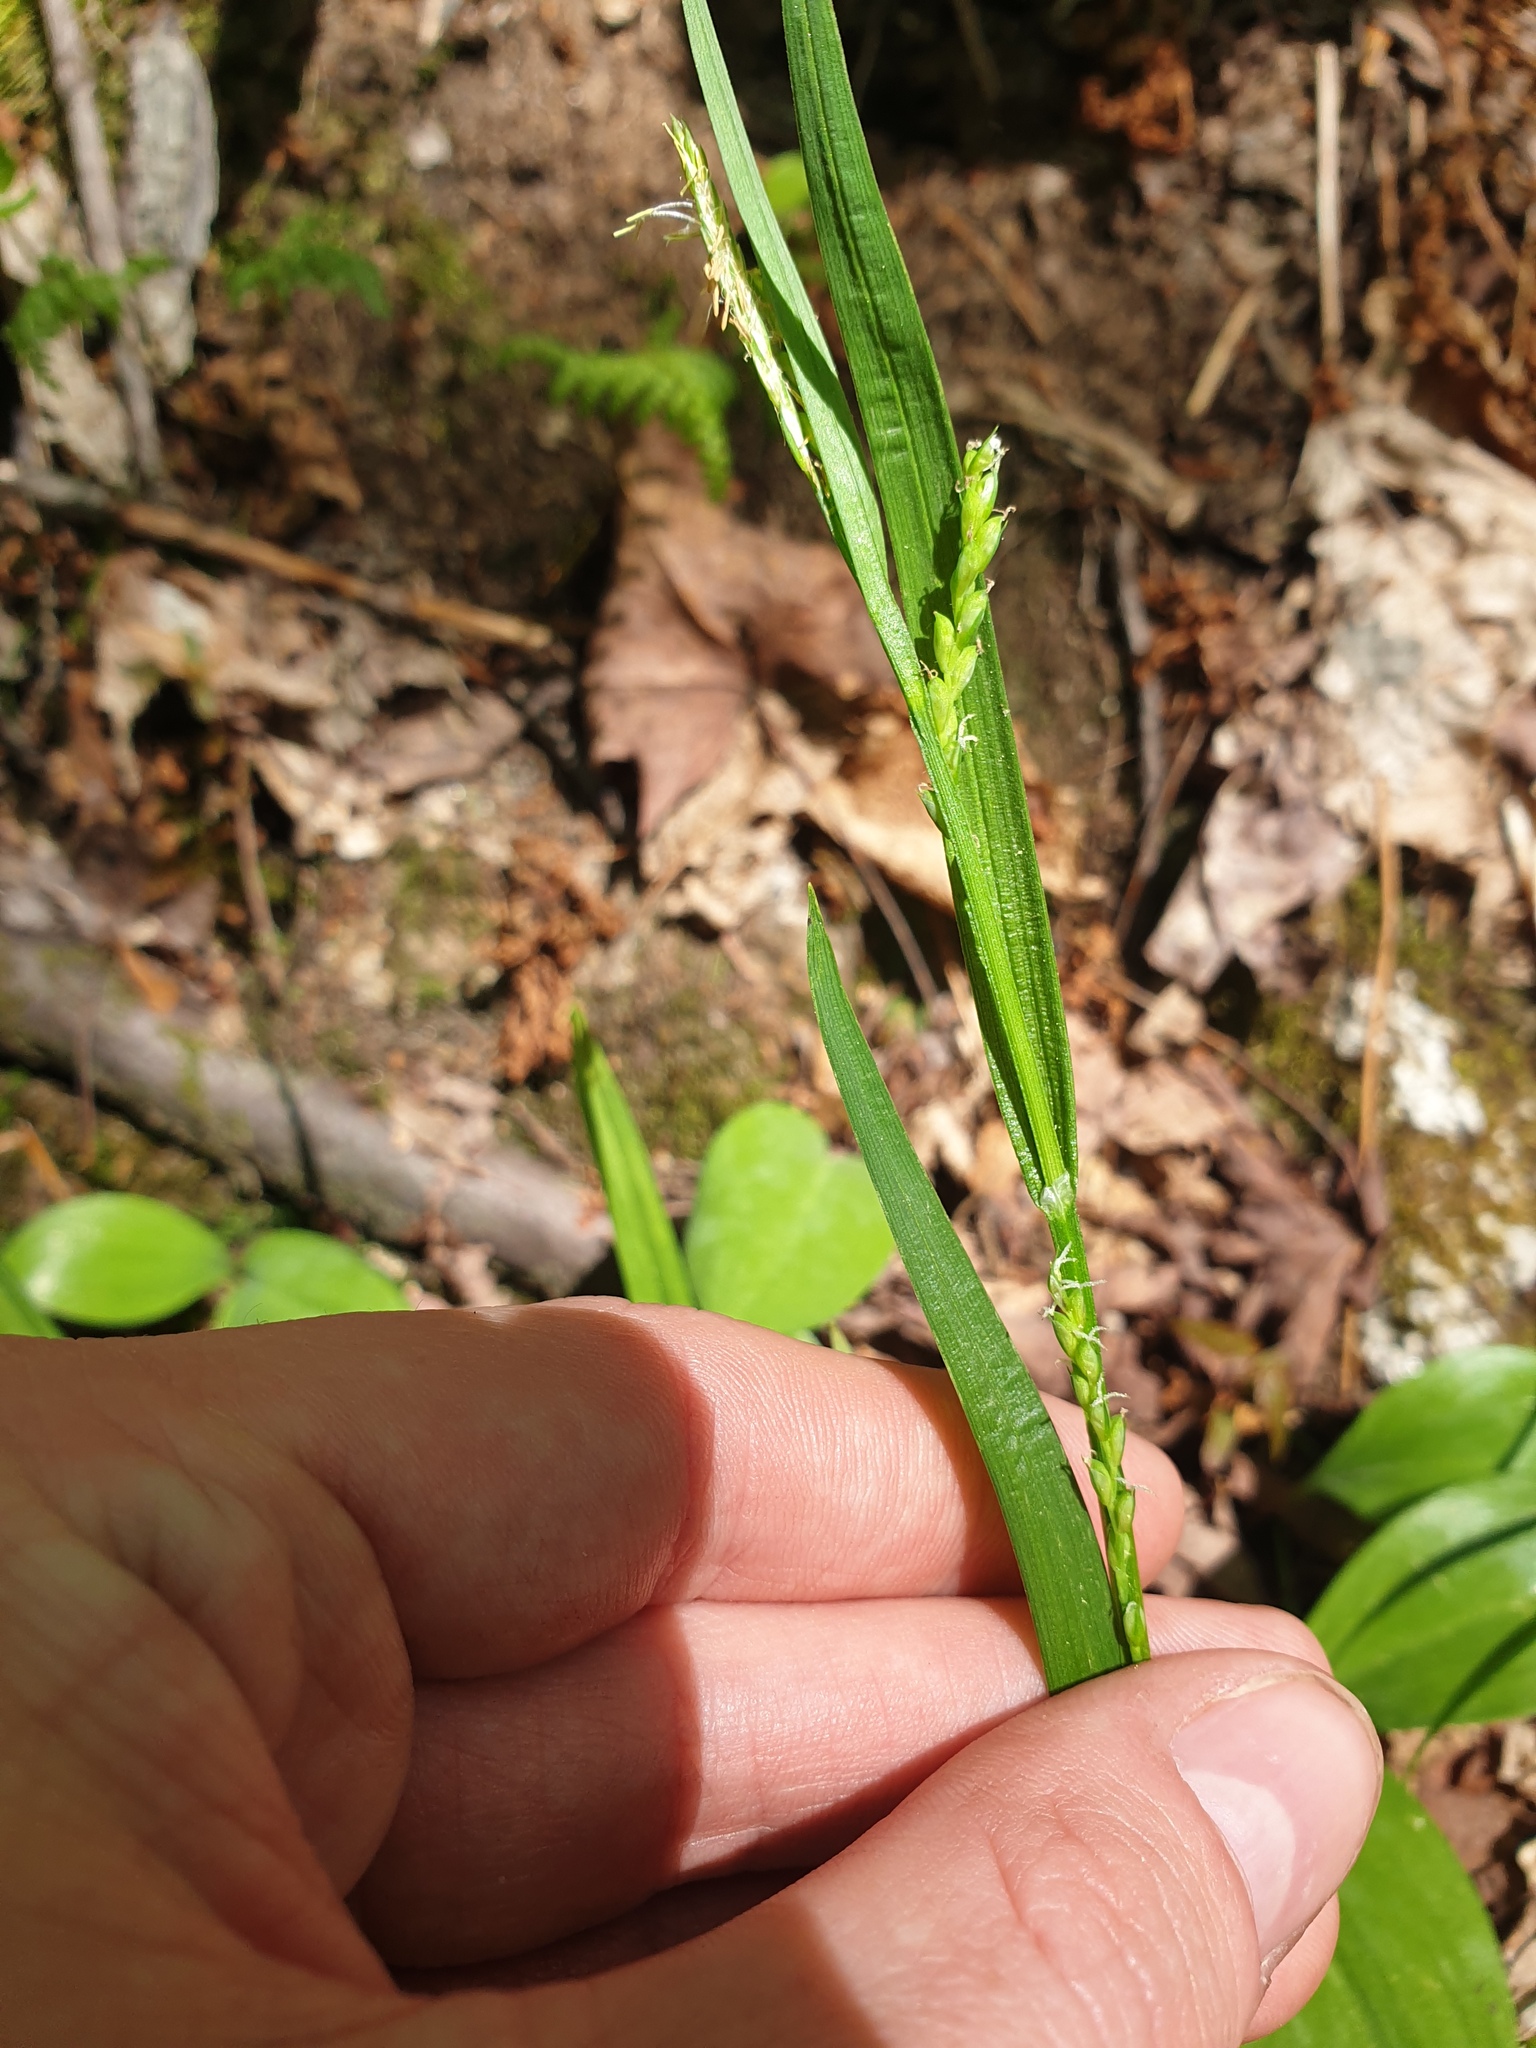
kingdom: Plantae
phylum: Tracheophyta
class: Liliopsida
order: Poales
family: Cyperaceae
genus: Carex
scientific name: Carex leptonervia
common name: Few-nerved wood sedge
